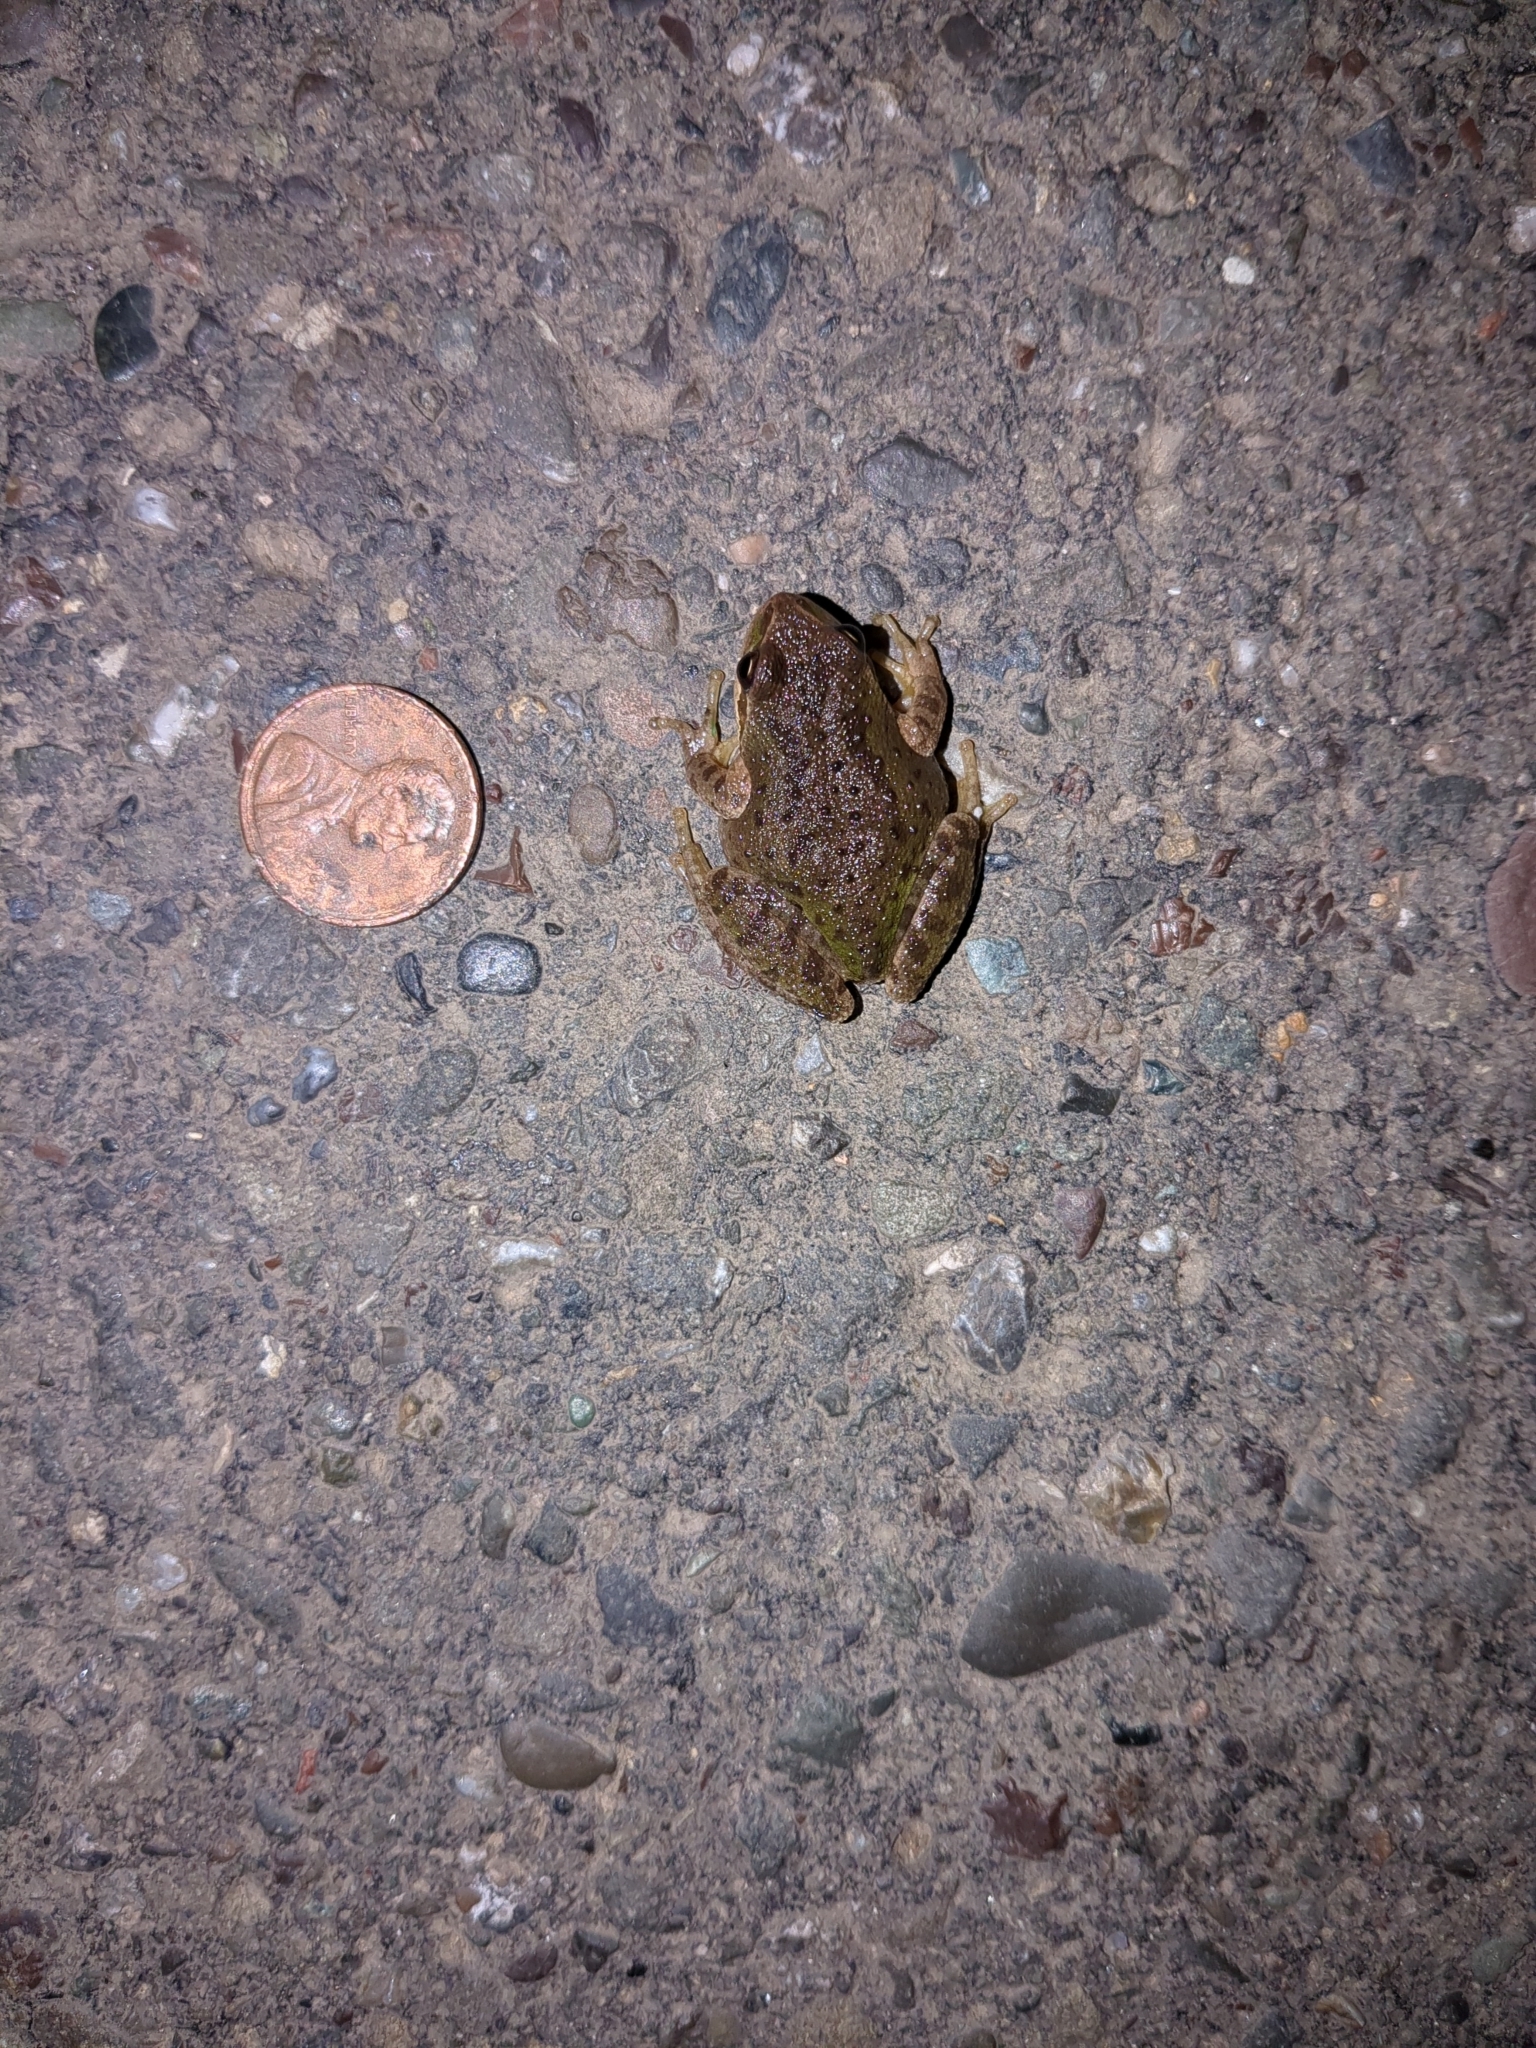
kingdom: Animalia
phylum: Chordata
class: Amphibia
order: Anura
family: Hylidae
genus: Pseudacris
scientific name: Pseudacris regilla
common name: Pacific chorus frog
